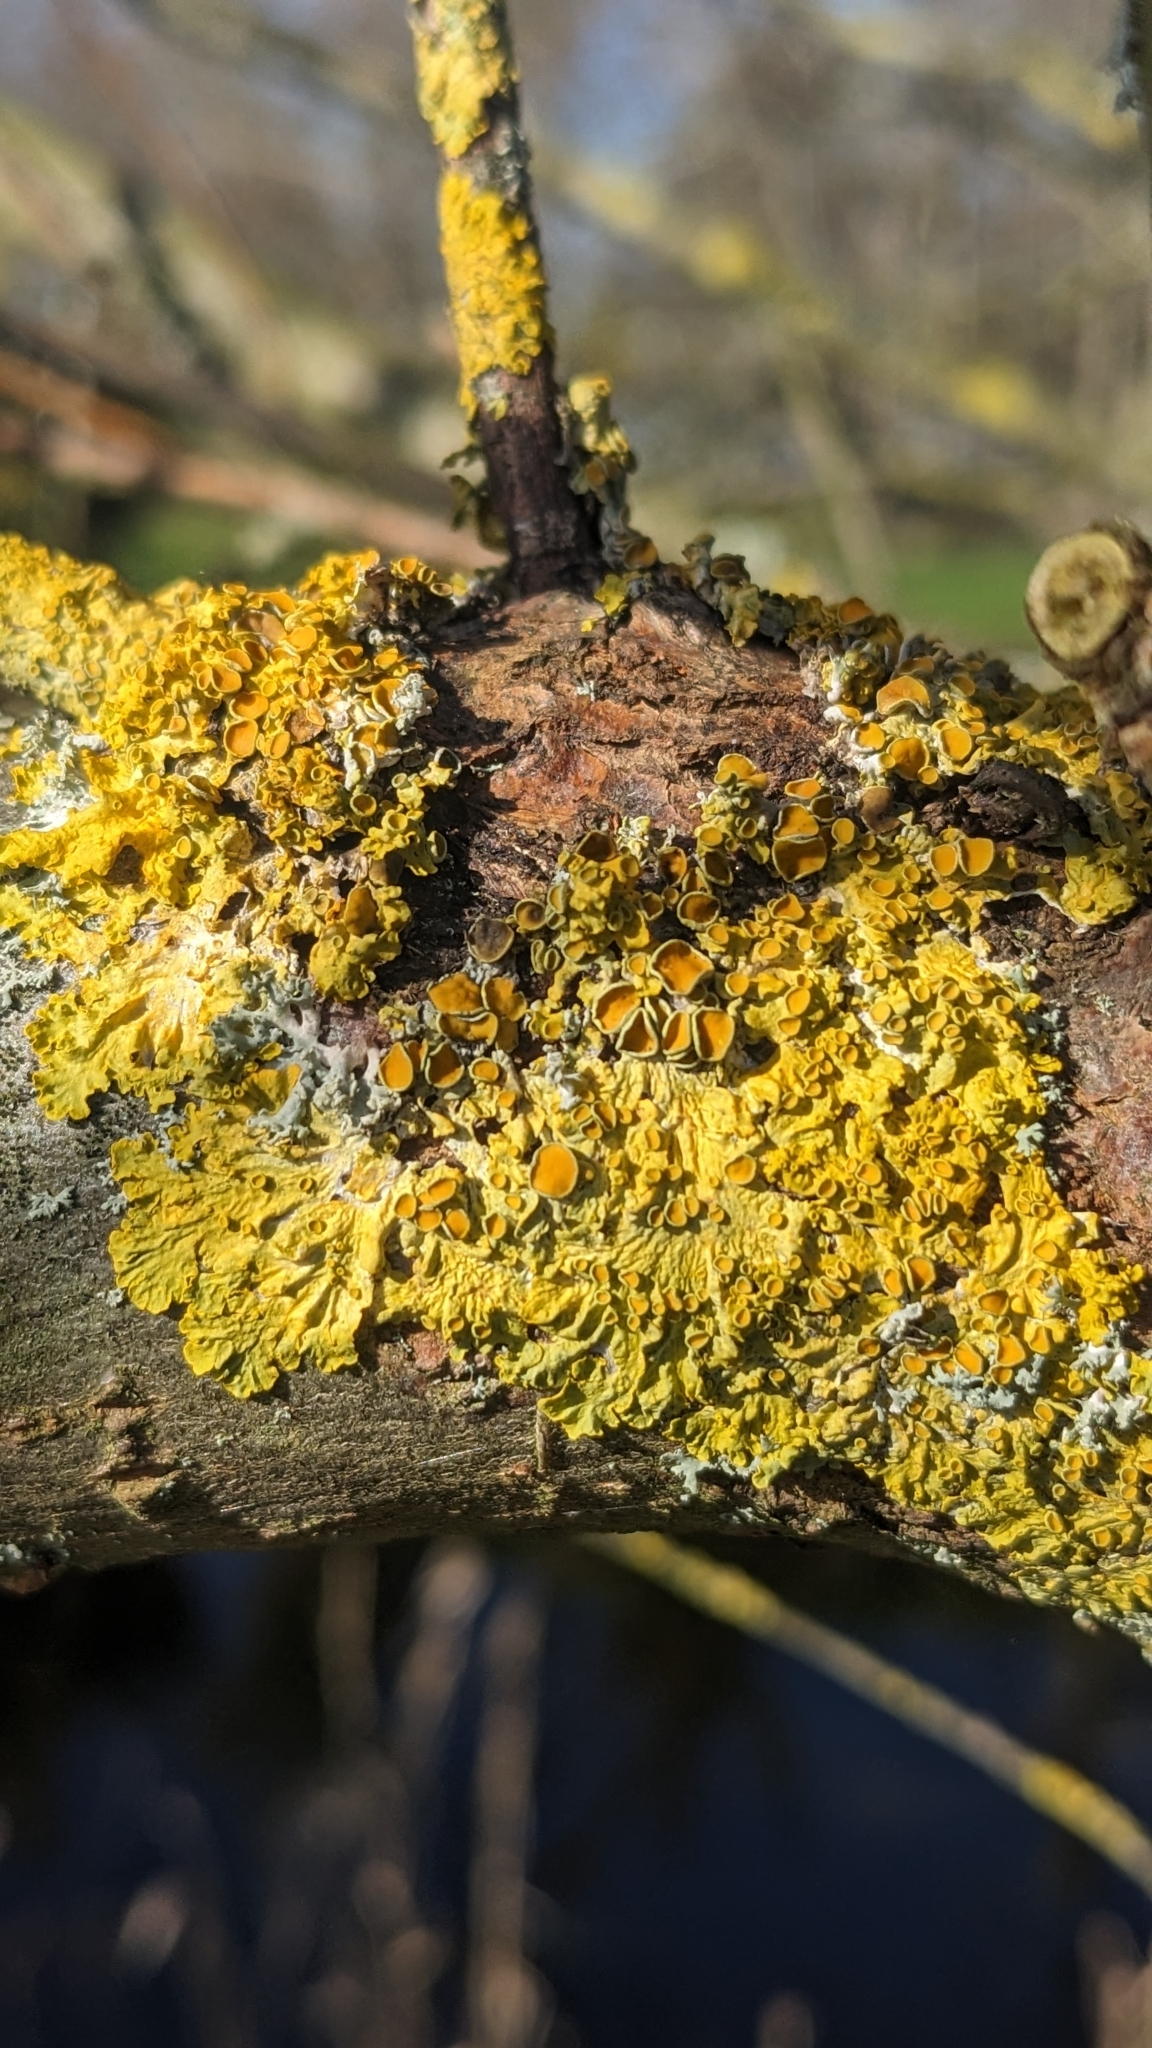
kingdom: Fungi
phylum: Ascomycota
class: Lecanoromycetes
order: Teloschistales
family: Teloschistaceae
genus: Xanthoria
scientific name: Xanthoria parietina
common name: Common orange lichen
